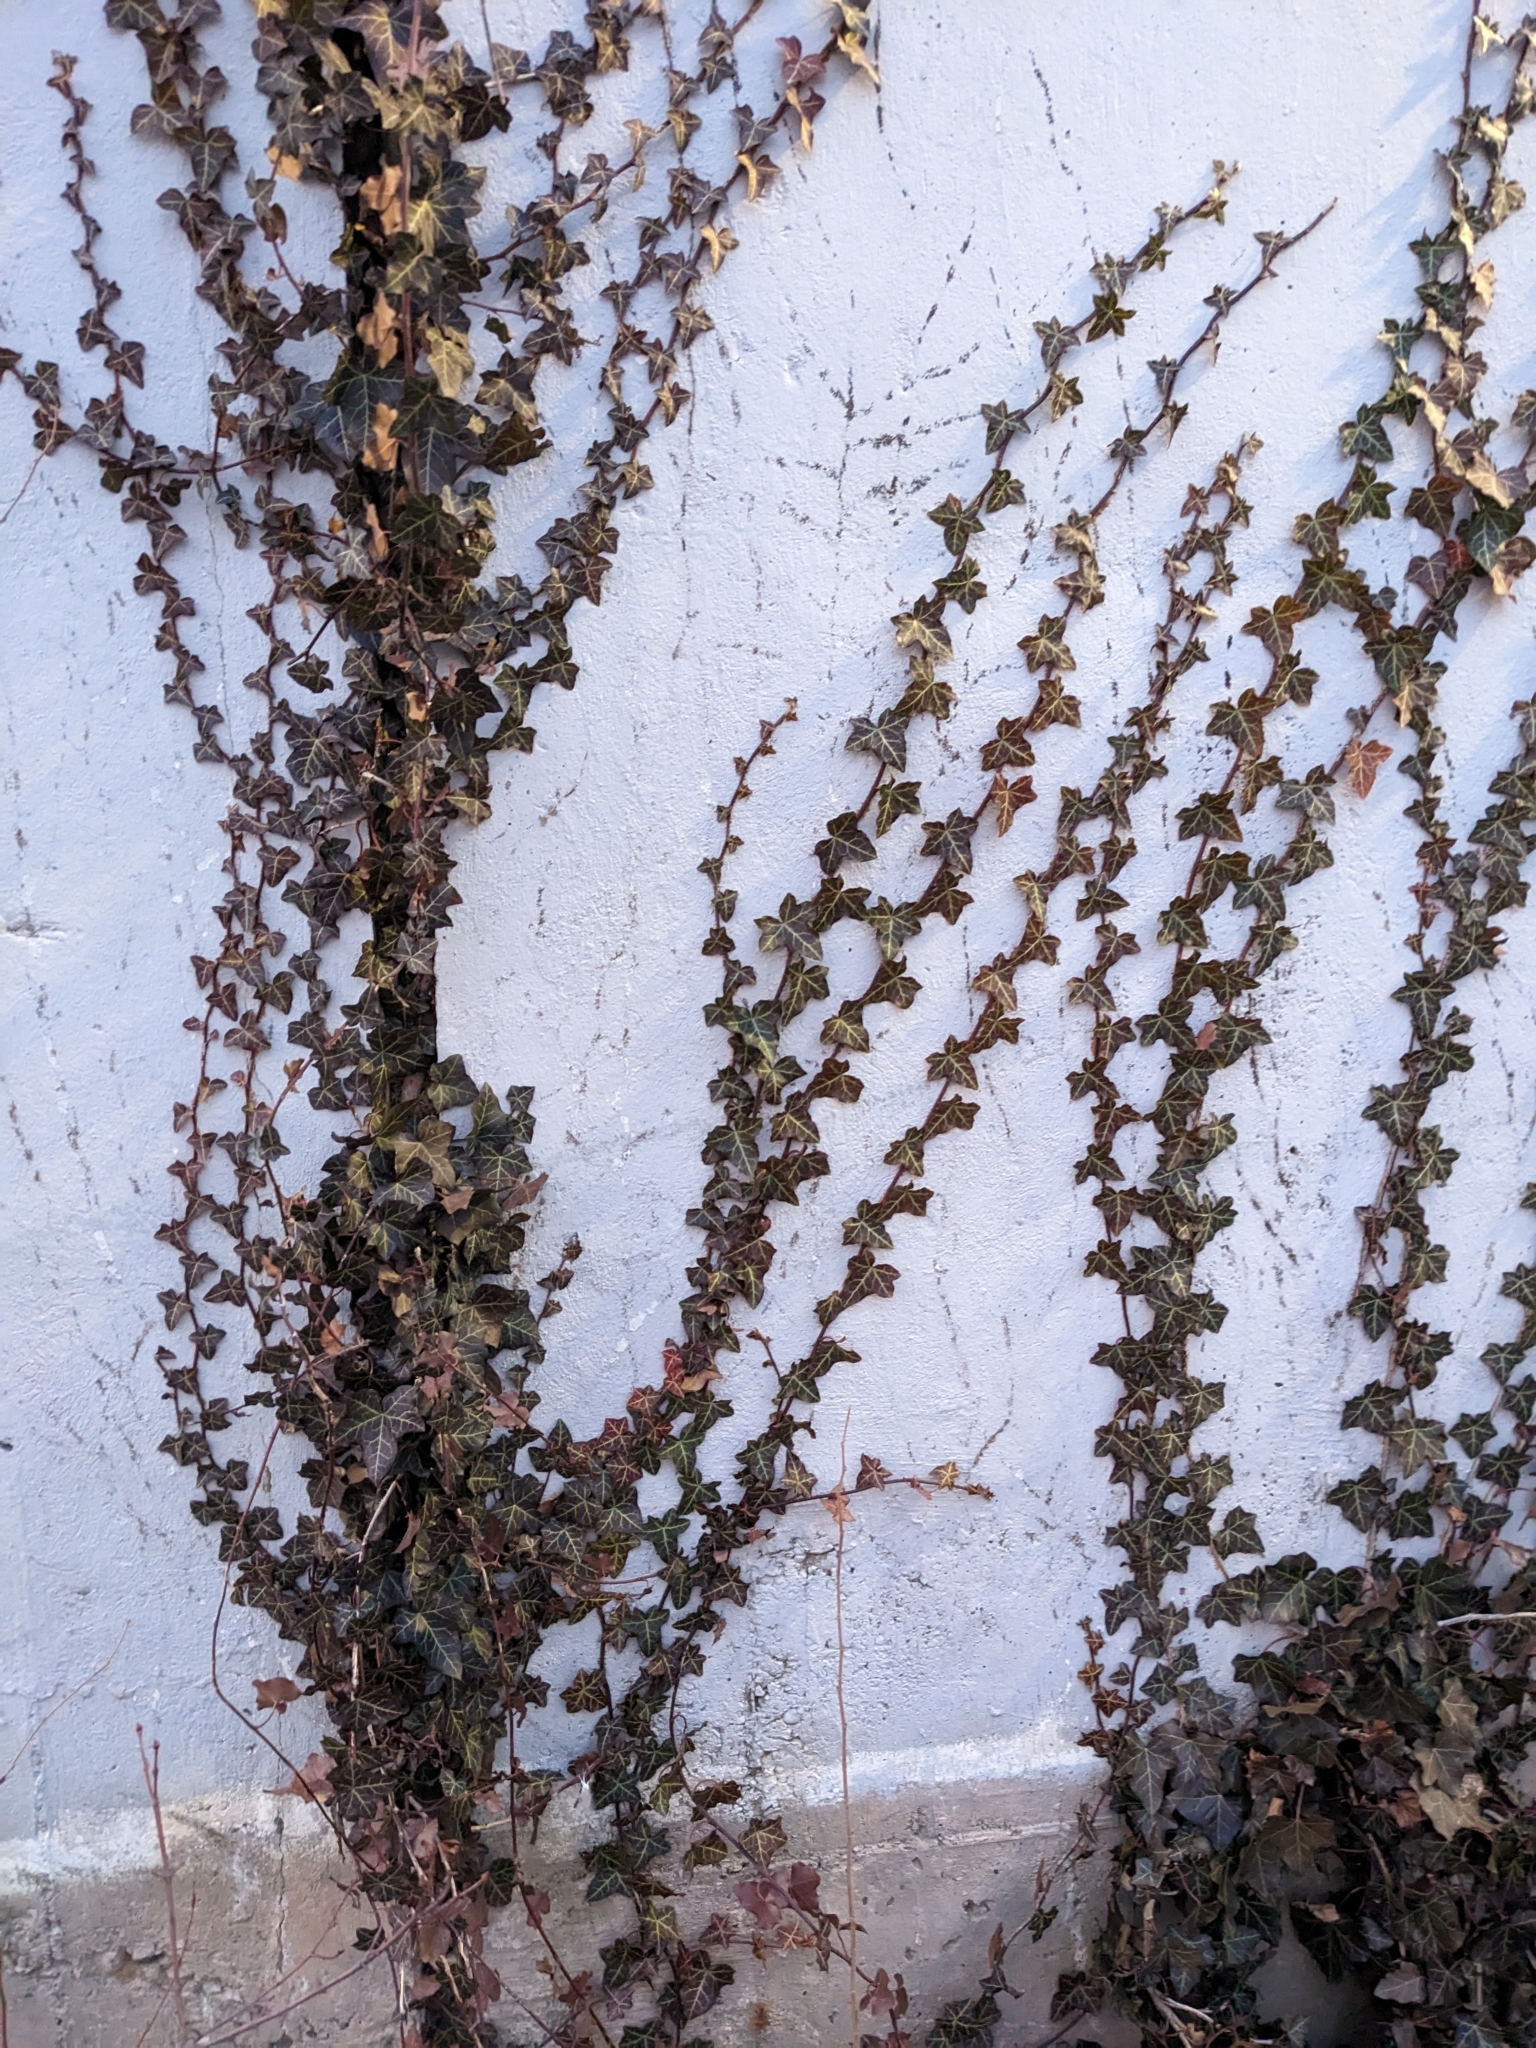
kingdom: Plantae
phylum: Tracheophyta
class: Magnoliopsida
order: Apiales
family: Araliaceae
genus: Hedera
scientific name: Hedera helix
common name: Ivy
